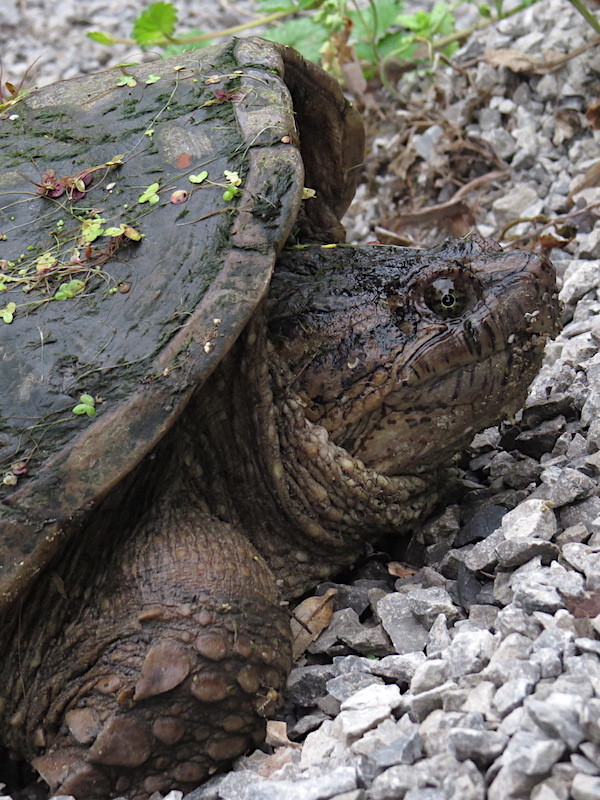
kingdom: Animalia
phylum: Chordata
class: Testudines
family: Chelydridae
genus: Chelydra
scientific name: Chelydra serpentina
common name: Common snapping turtle
